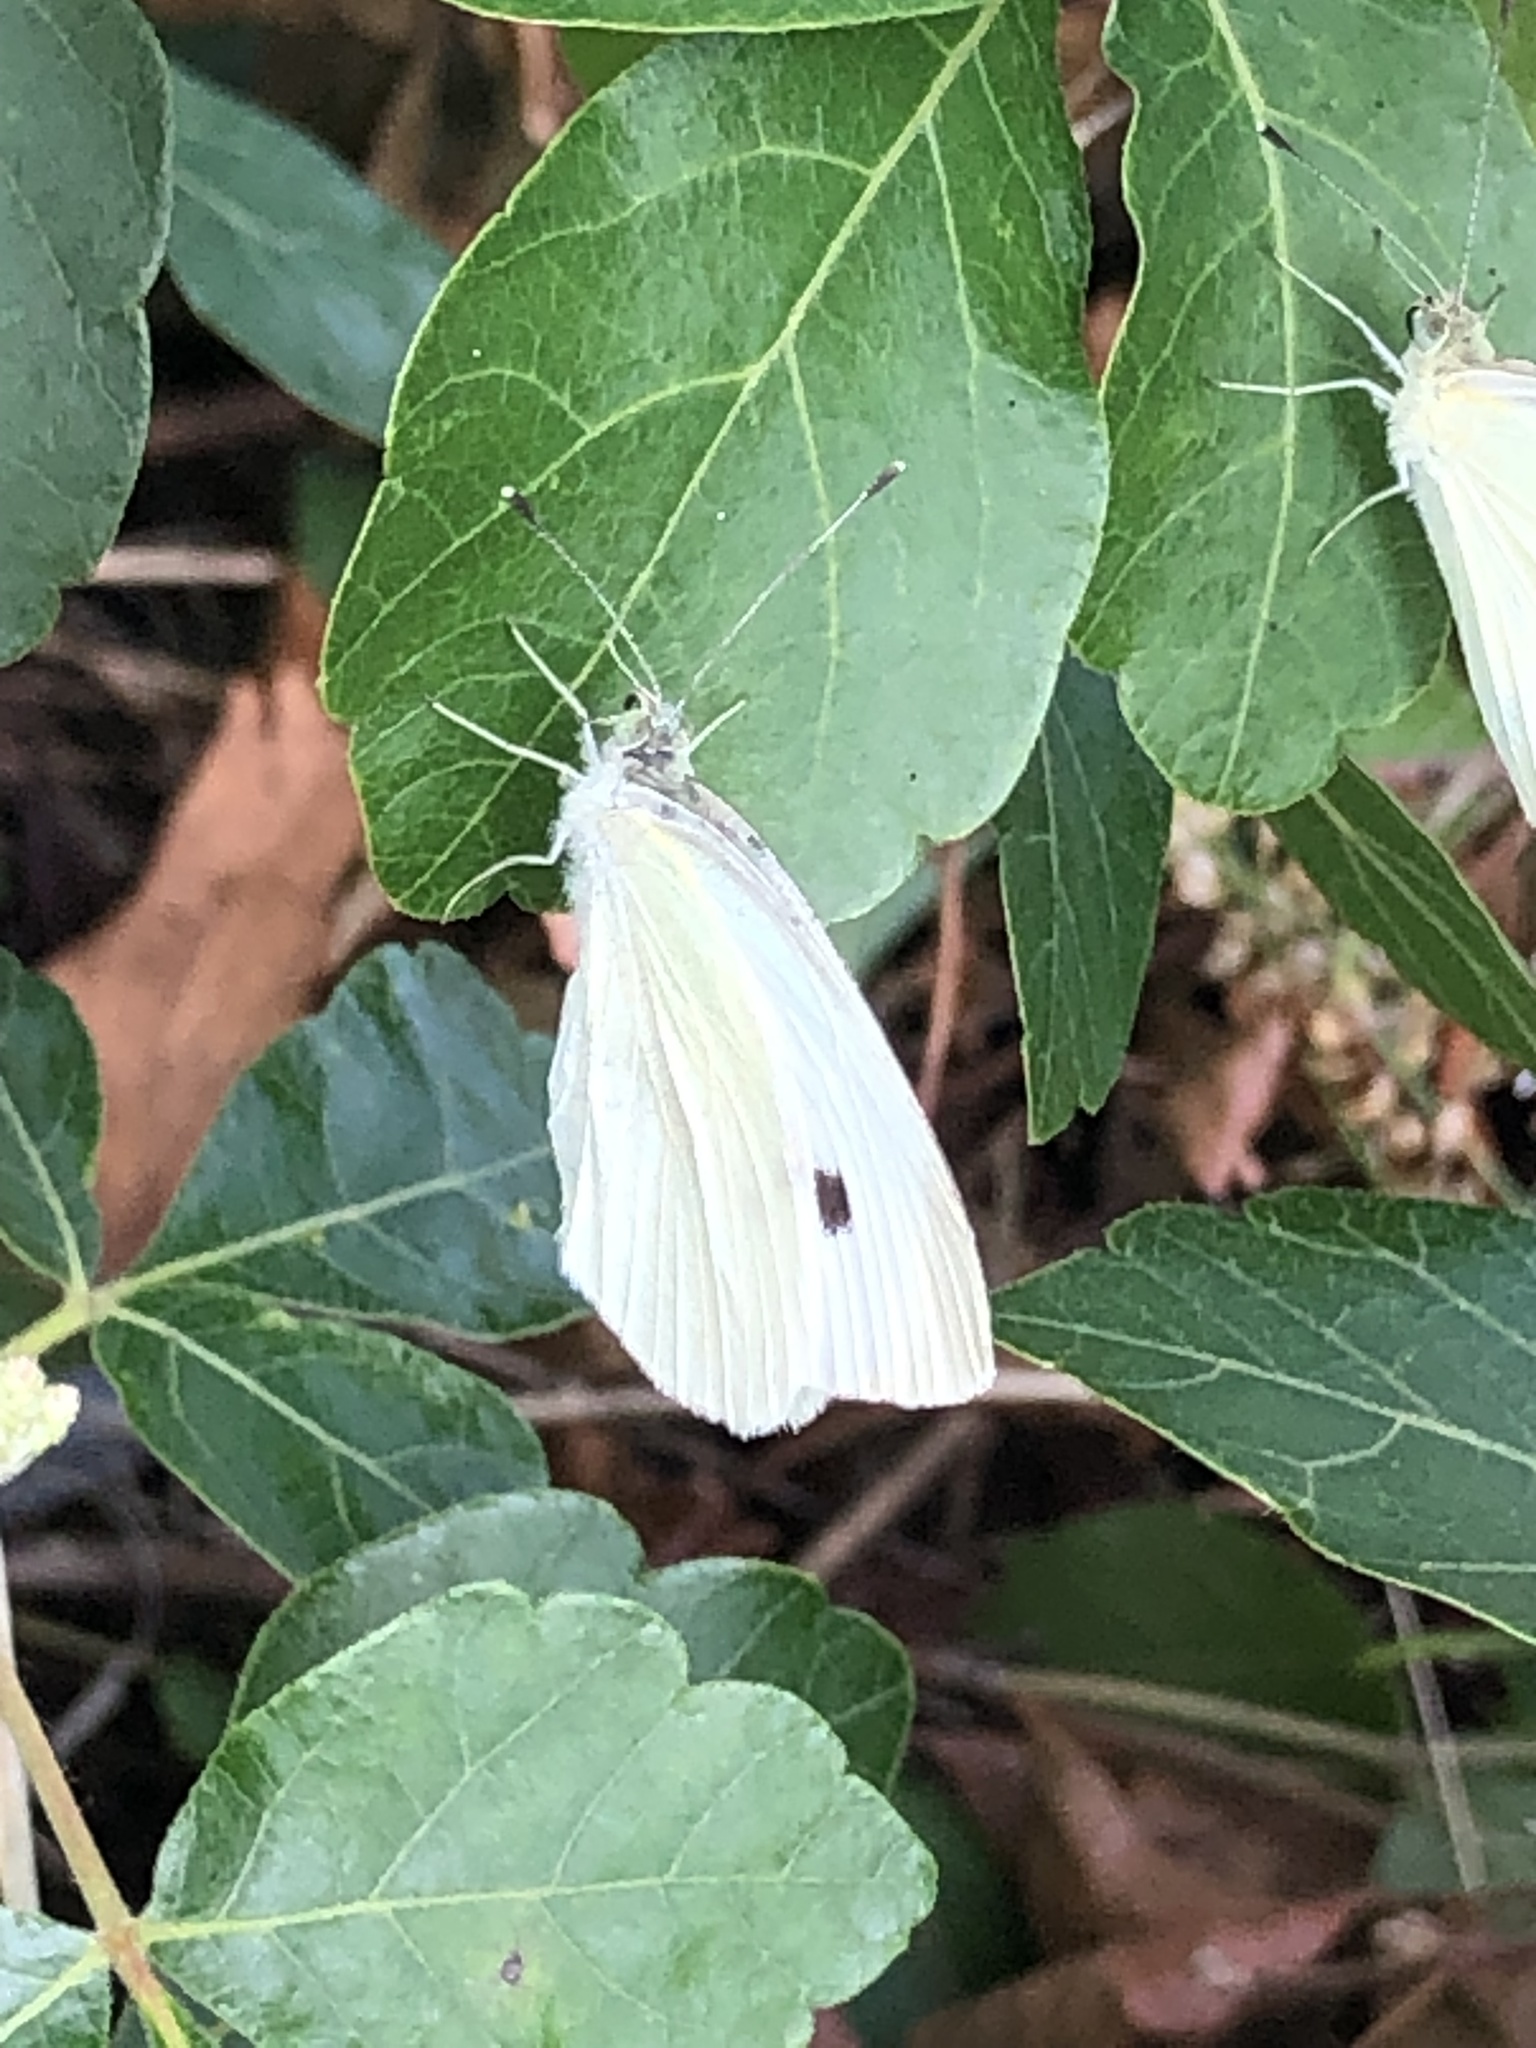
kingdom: Animalia
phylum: Arthropoda
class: Insecta
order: Lepidoptera
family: Pieridae
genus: Pieris
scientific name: Pieris rapae
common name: Small white
